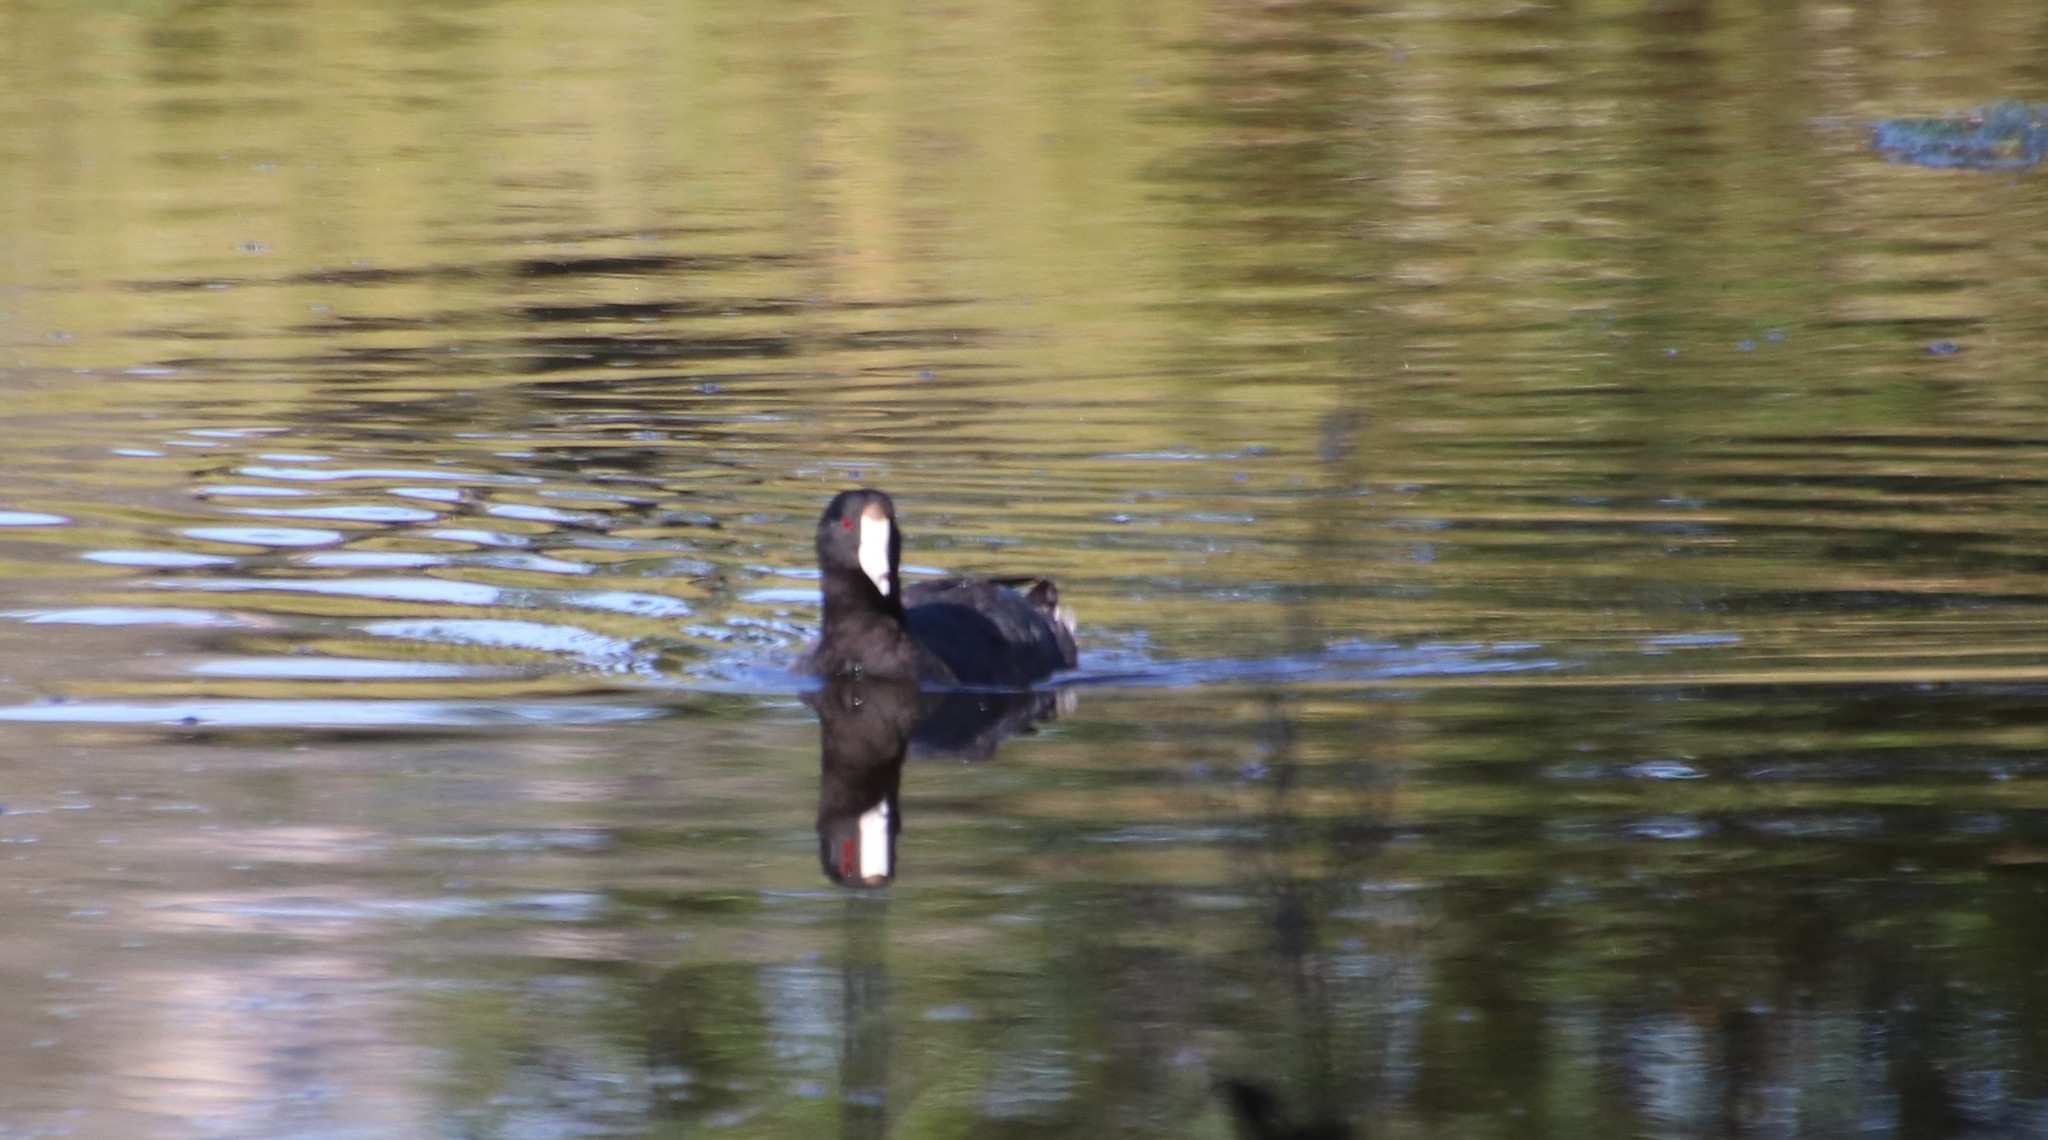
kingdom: Animalia
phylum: Chordata
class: Aves
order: Gruiformes
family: Rallidae
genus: Fulica
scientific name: Fulica americana
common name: American coot
